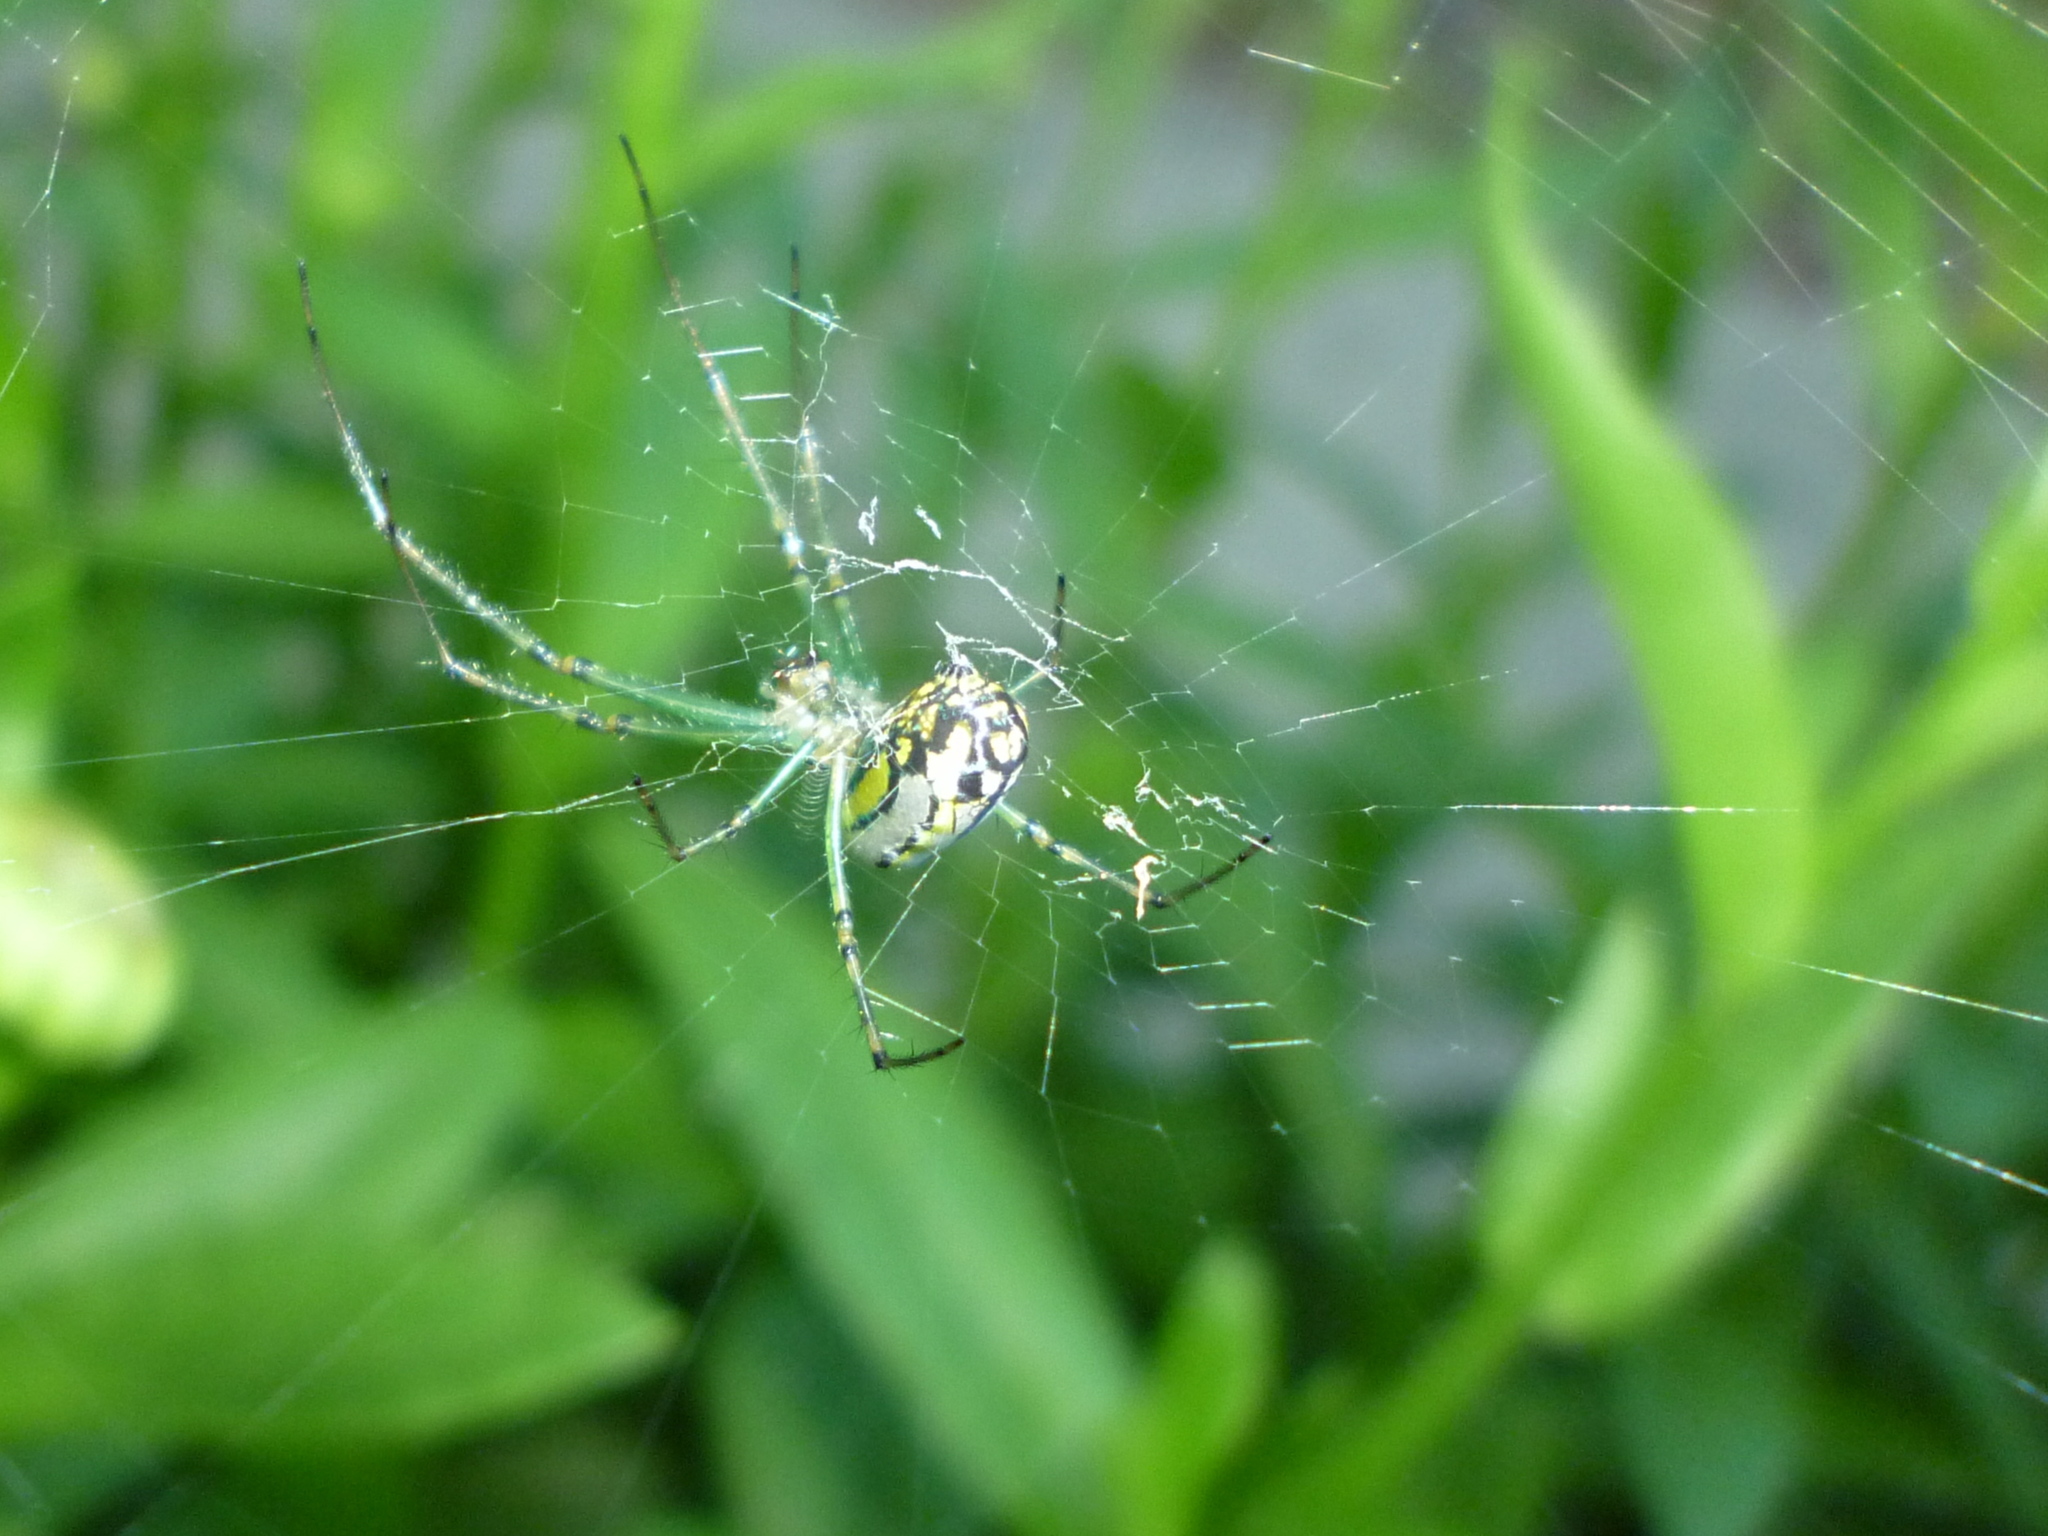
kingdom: Animalia
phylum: Arthropoda
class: Arachnida
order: Araneae
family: Tetragnathidae
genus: Leucauge
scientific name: Leucauge venusta
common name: Longjawed orb weavers
